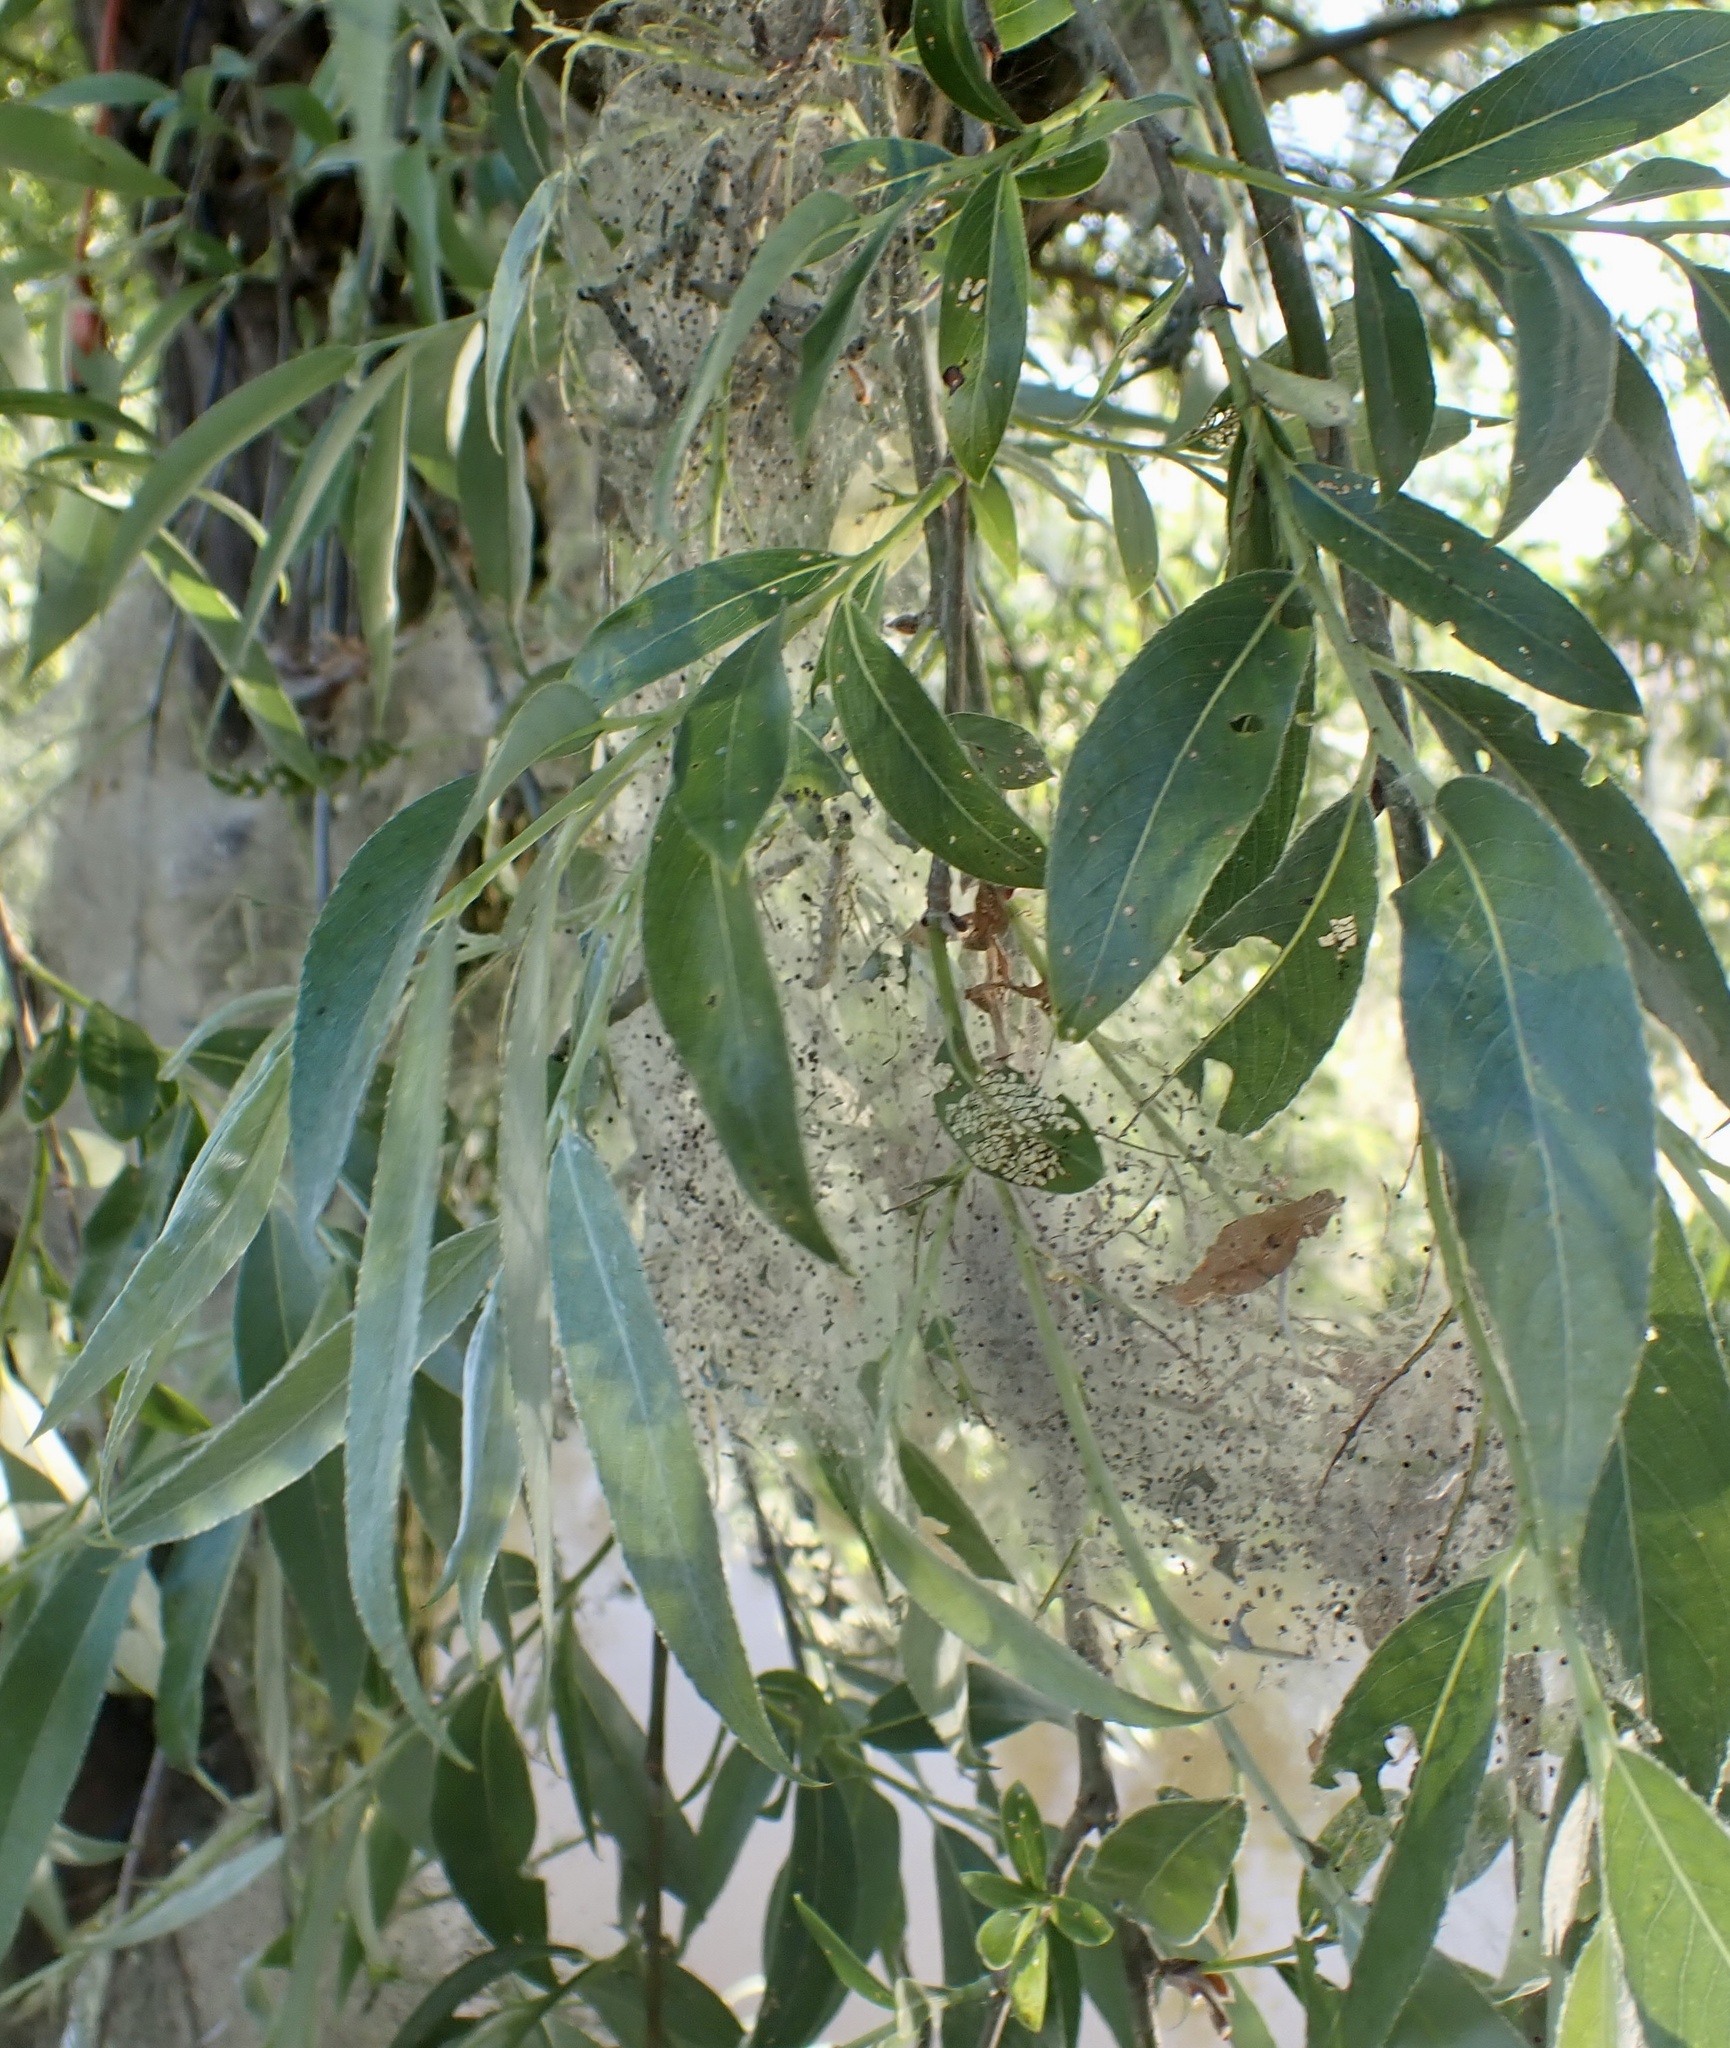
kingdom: Animalia
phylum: Arthropoda
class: Insecta
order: Lepidoptera
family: Yponomeutidae
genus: Yponomeuta
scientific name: Yponomeuta padella
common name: Orchard ermine
